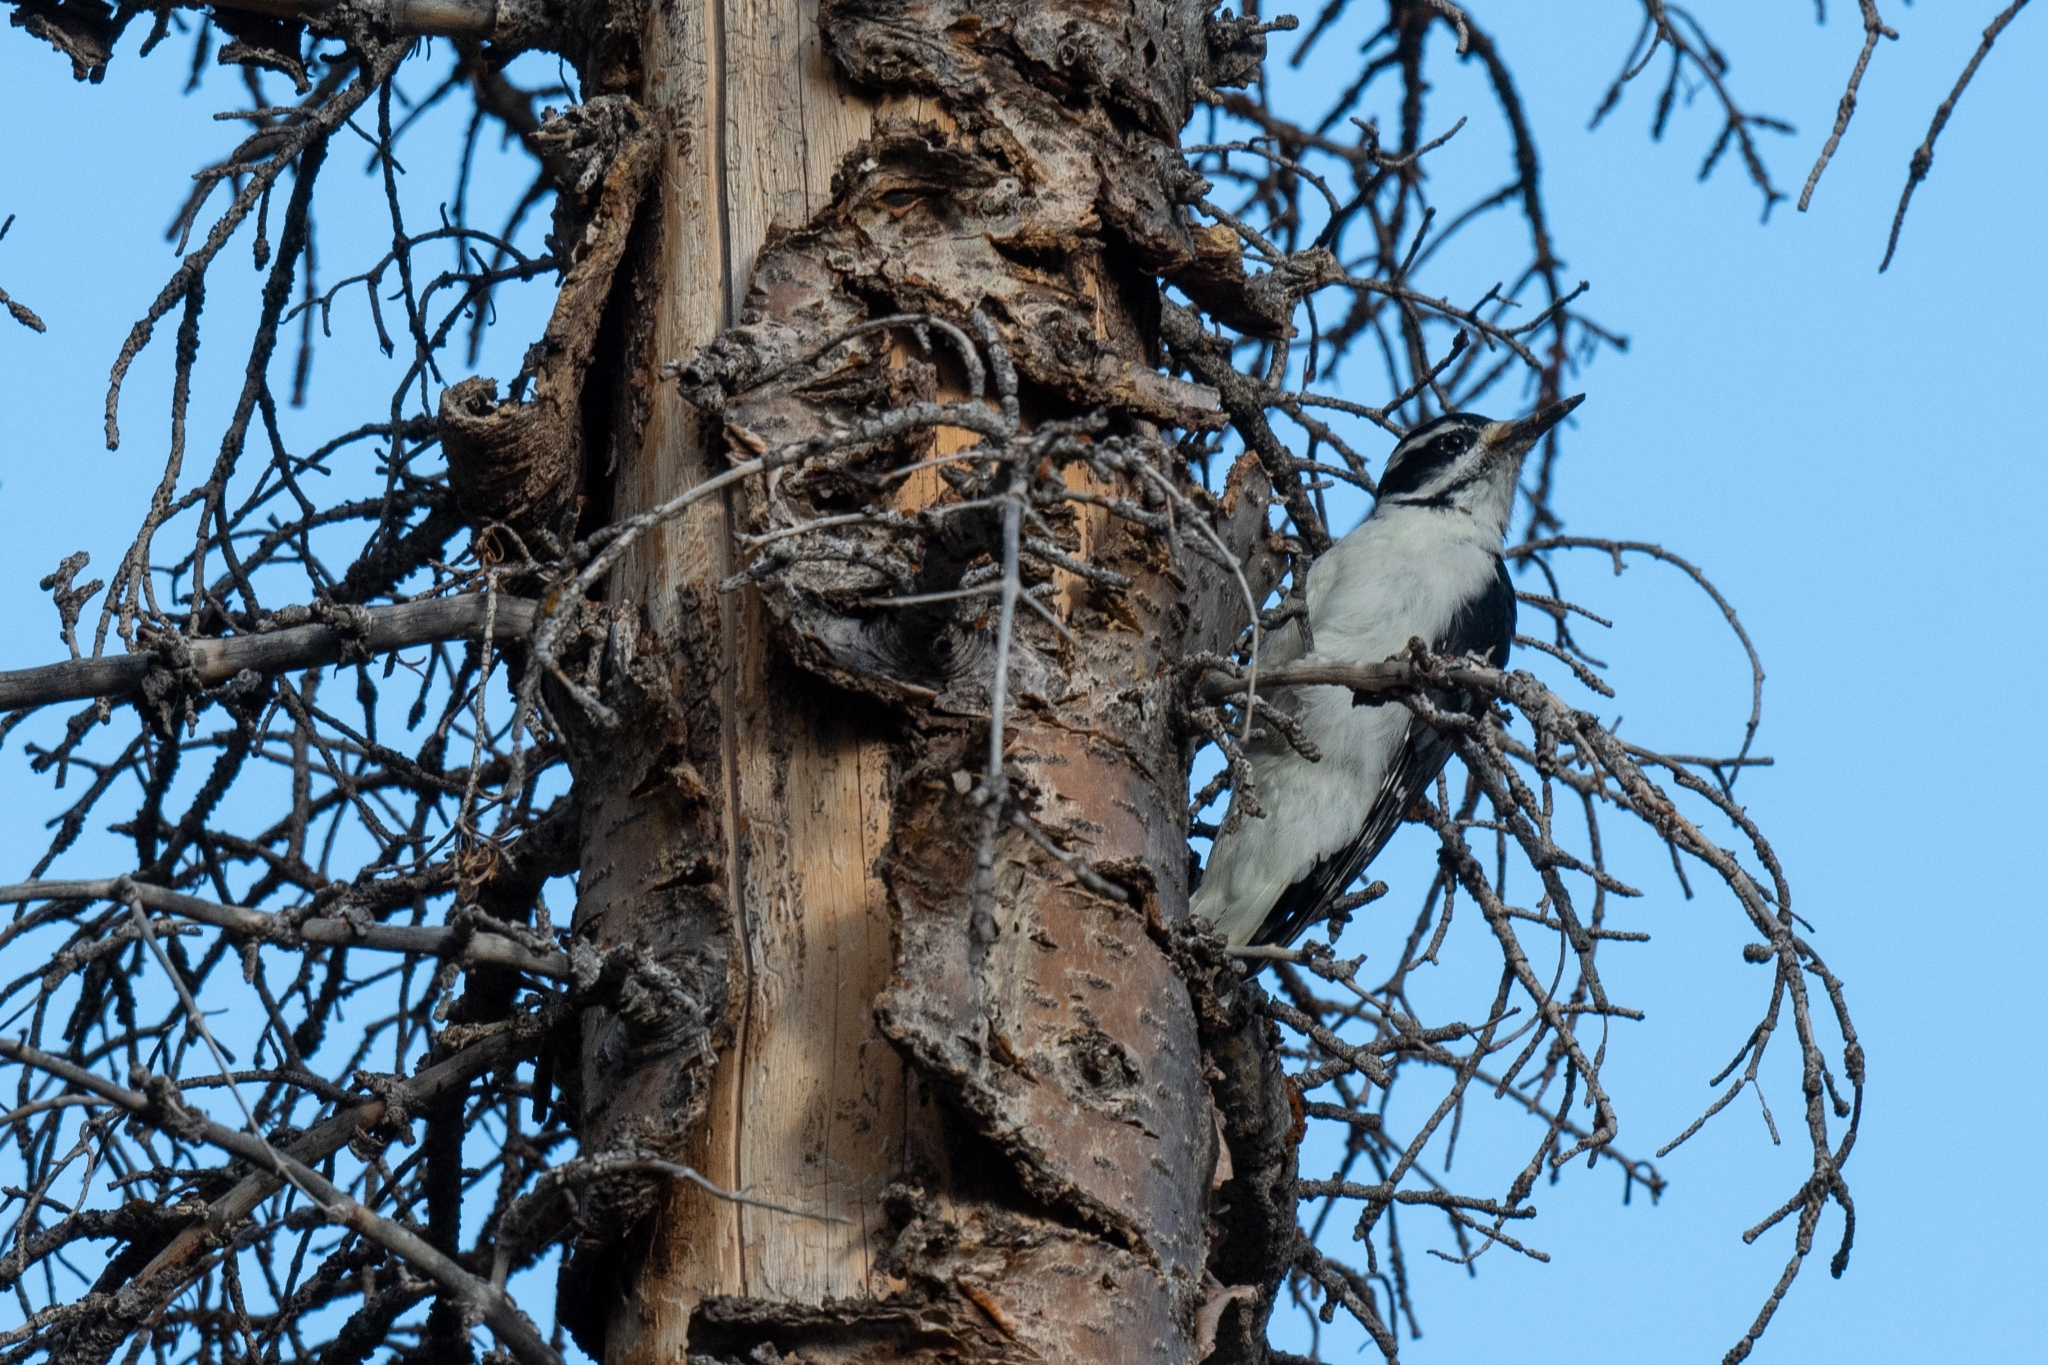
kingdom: Animalia
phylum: Chordata
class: Aves
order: Piciformes
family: Picidae
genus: Leuconotopicus
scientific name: Leuconotopicus villosus
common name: Hairy woodpecker
